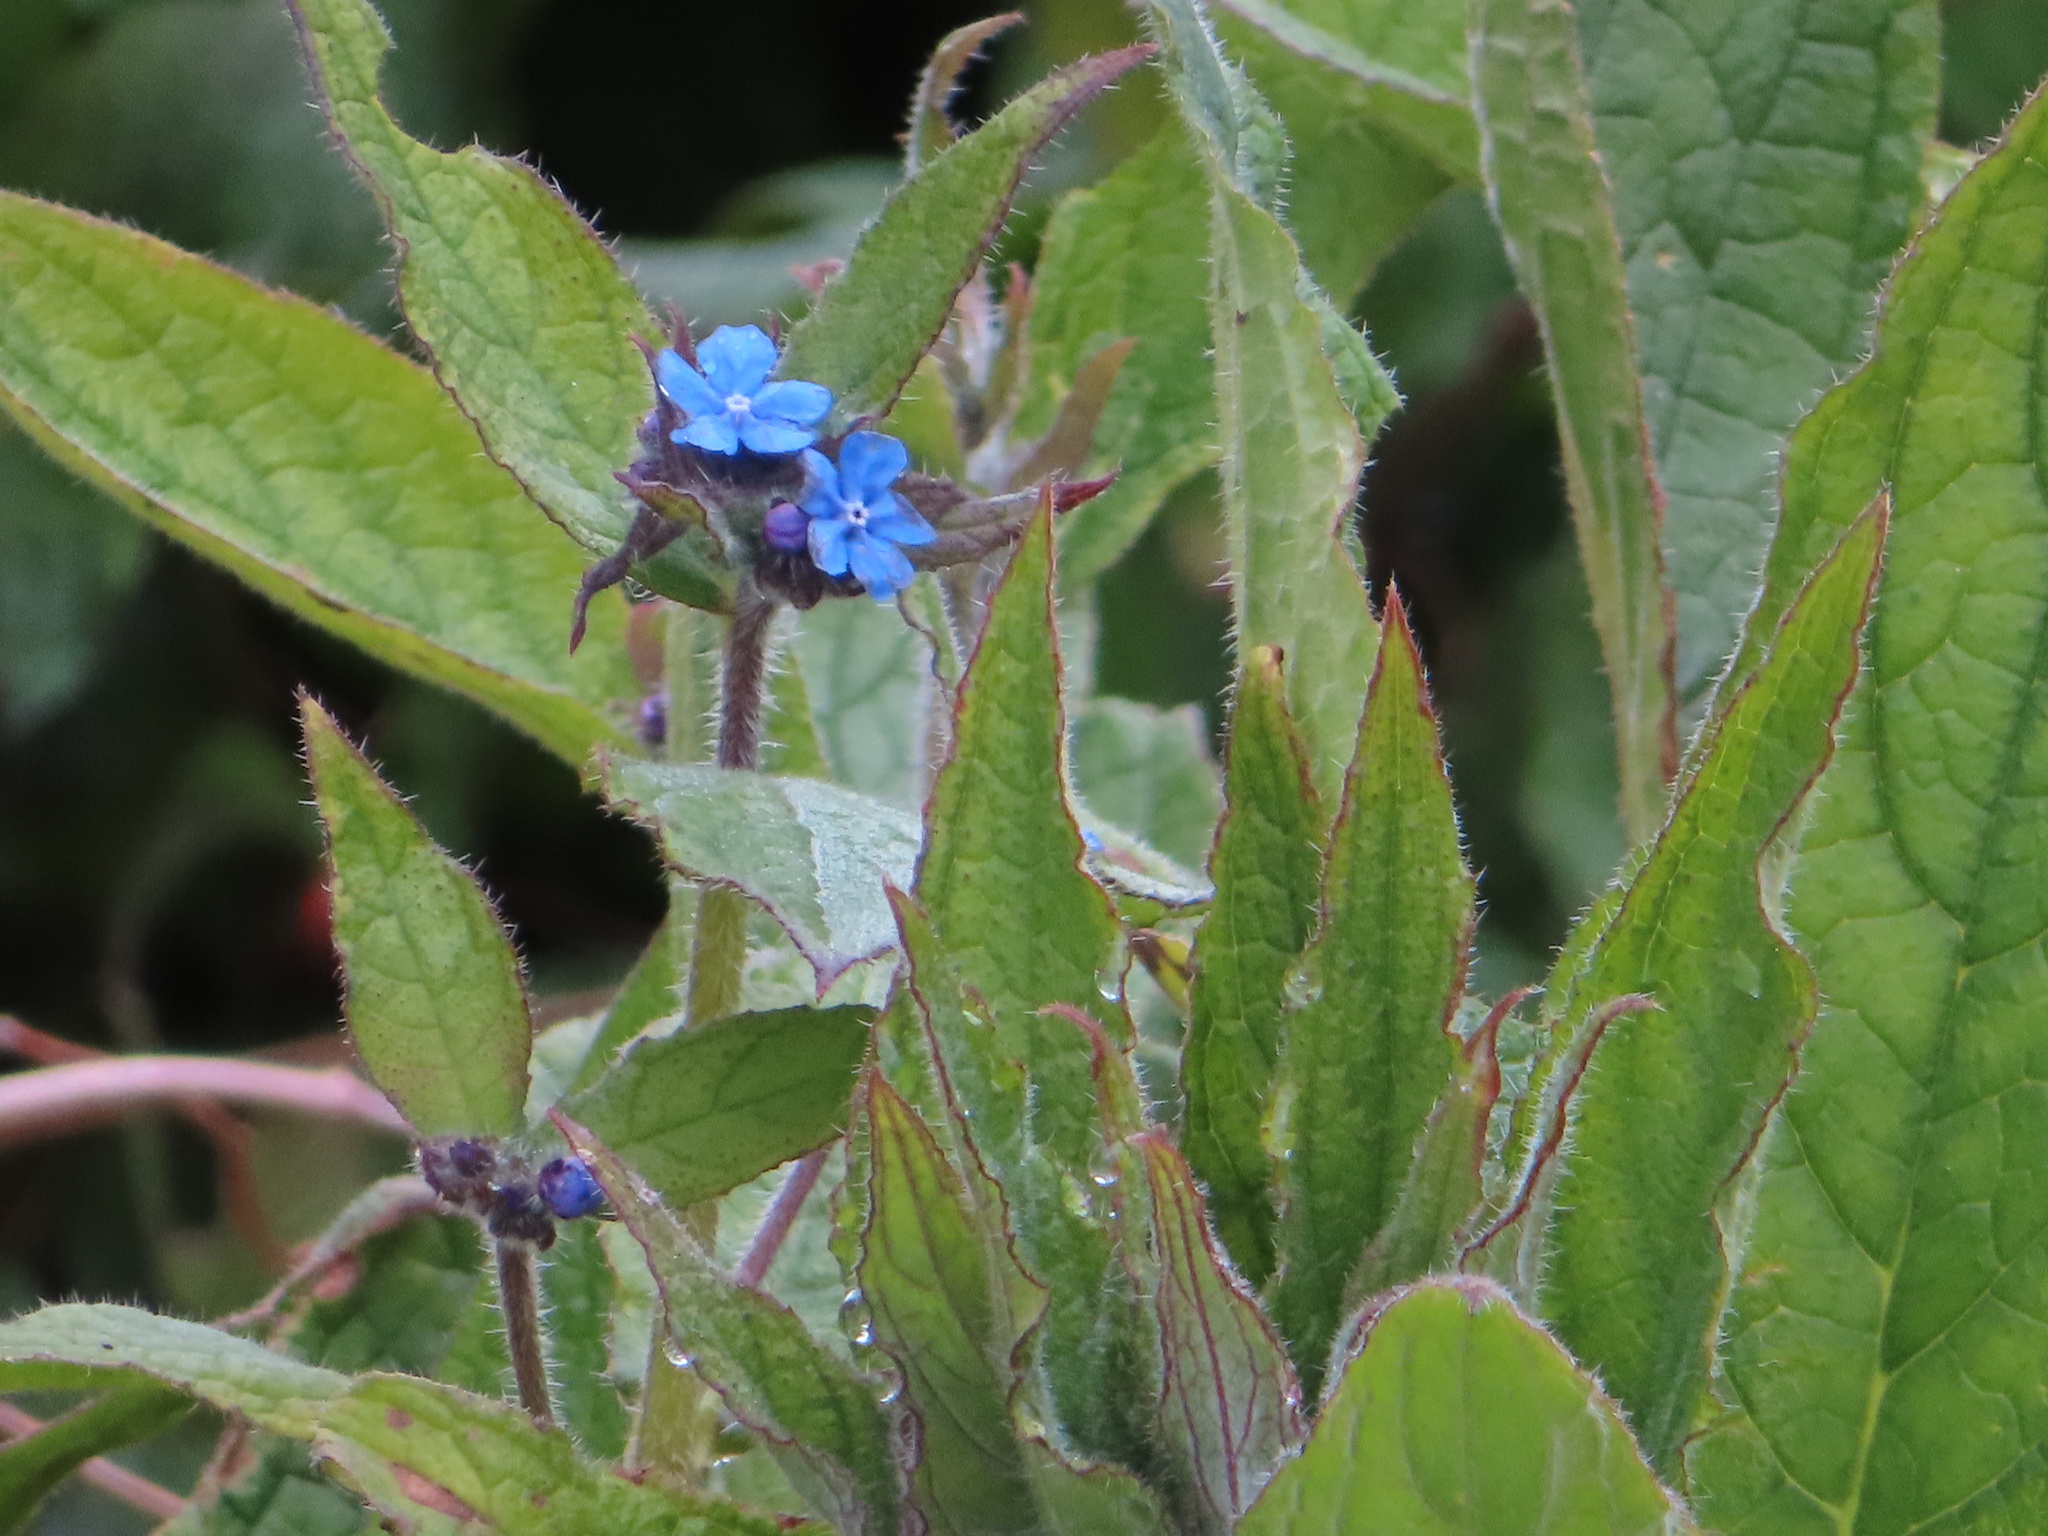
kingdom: Plantae
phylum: Tracheophyta
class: Magnoliopsida
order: Boraginales
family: Boraginaceae
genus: Pentaglottis
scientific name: Pentaglottis sempervirens
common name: Green alkanet
